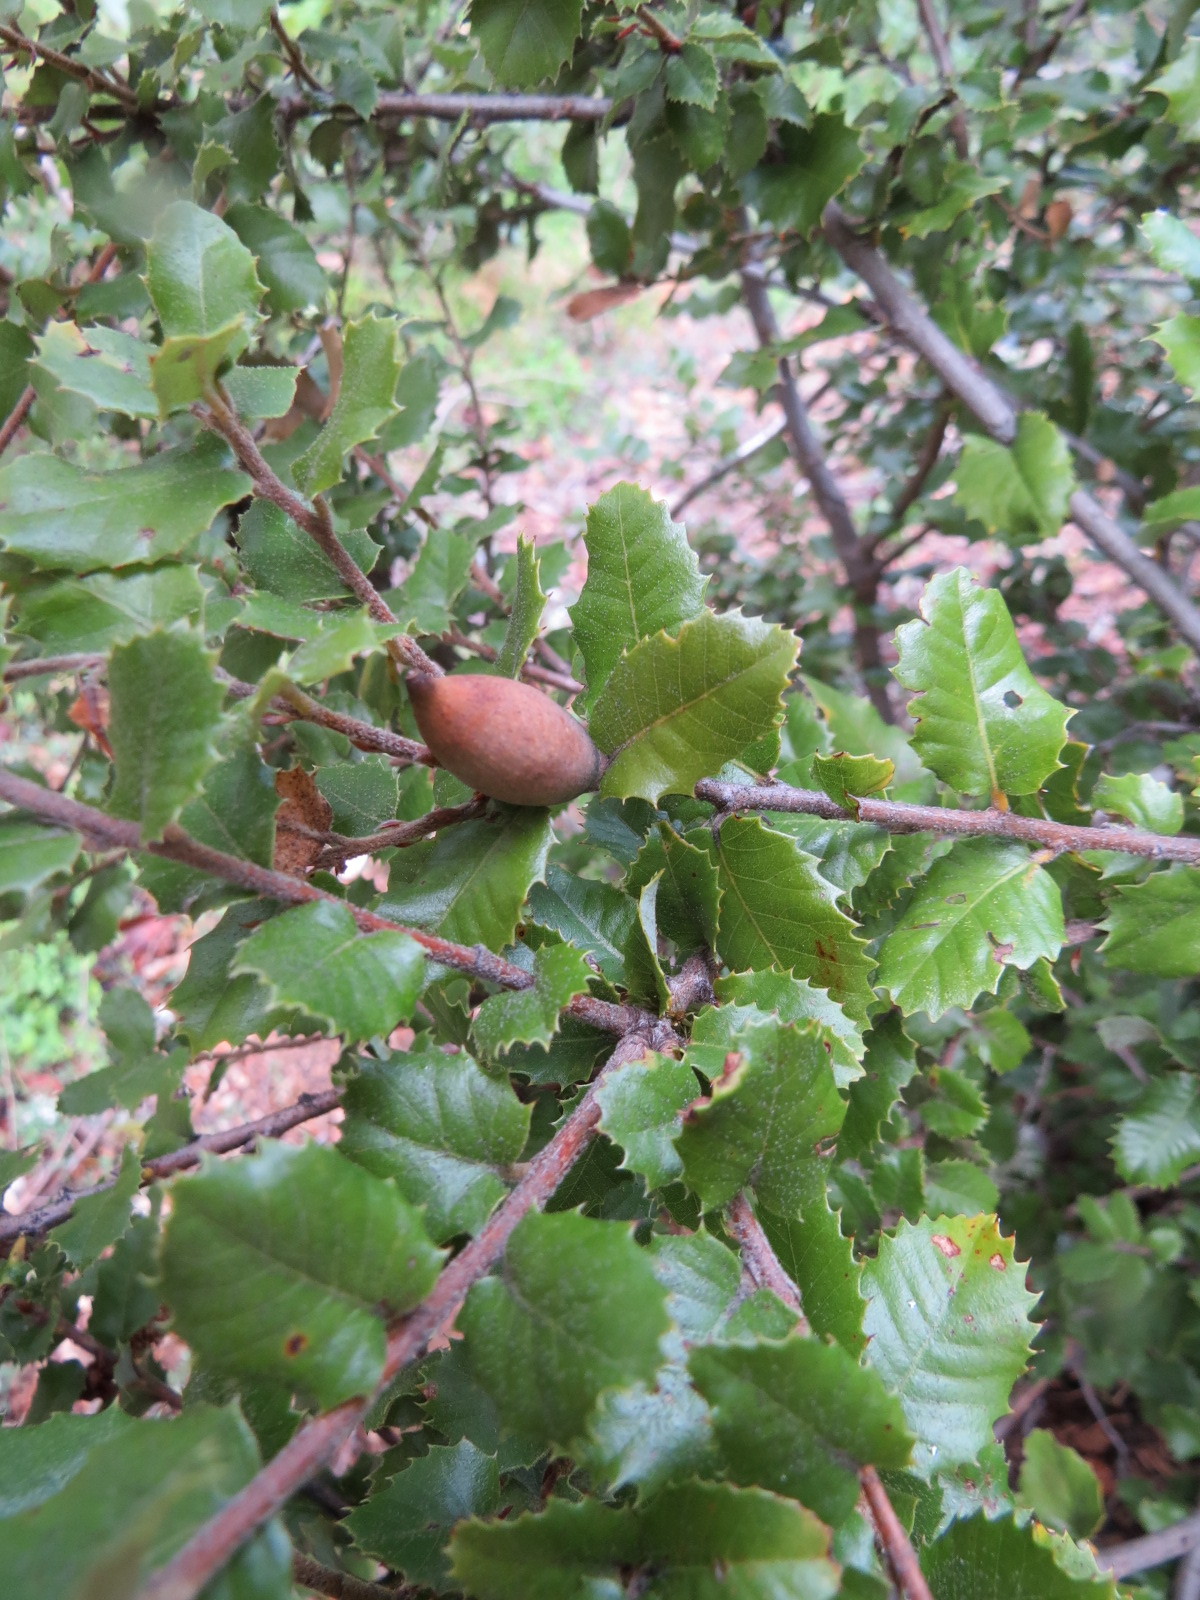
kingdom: Animalia
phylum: Arthropoda
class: Insecta
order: Hymenoptera
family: Cynipidae
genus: Heteroecus
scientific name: Heteroecus pacificus
